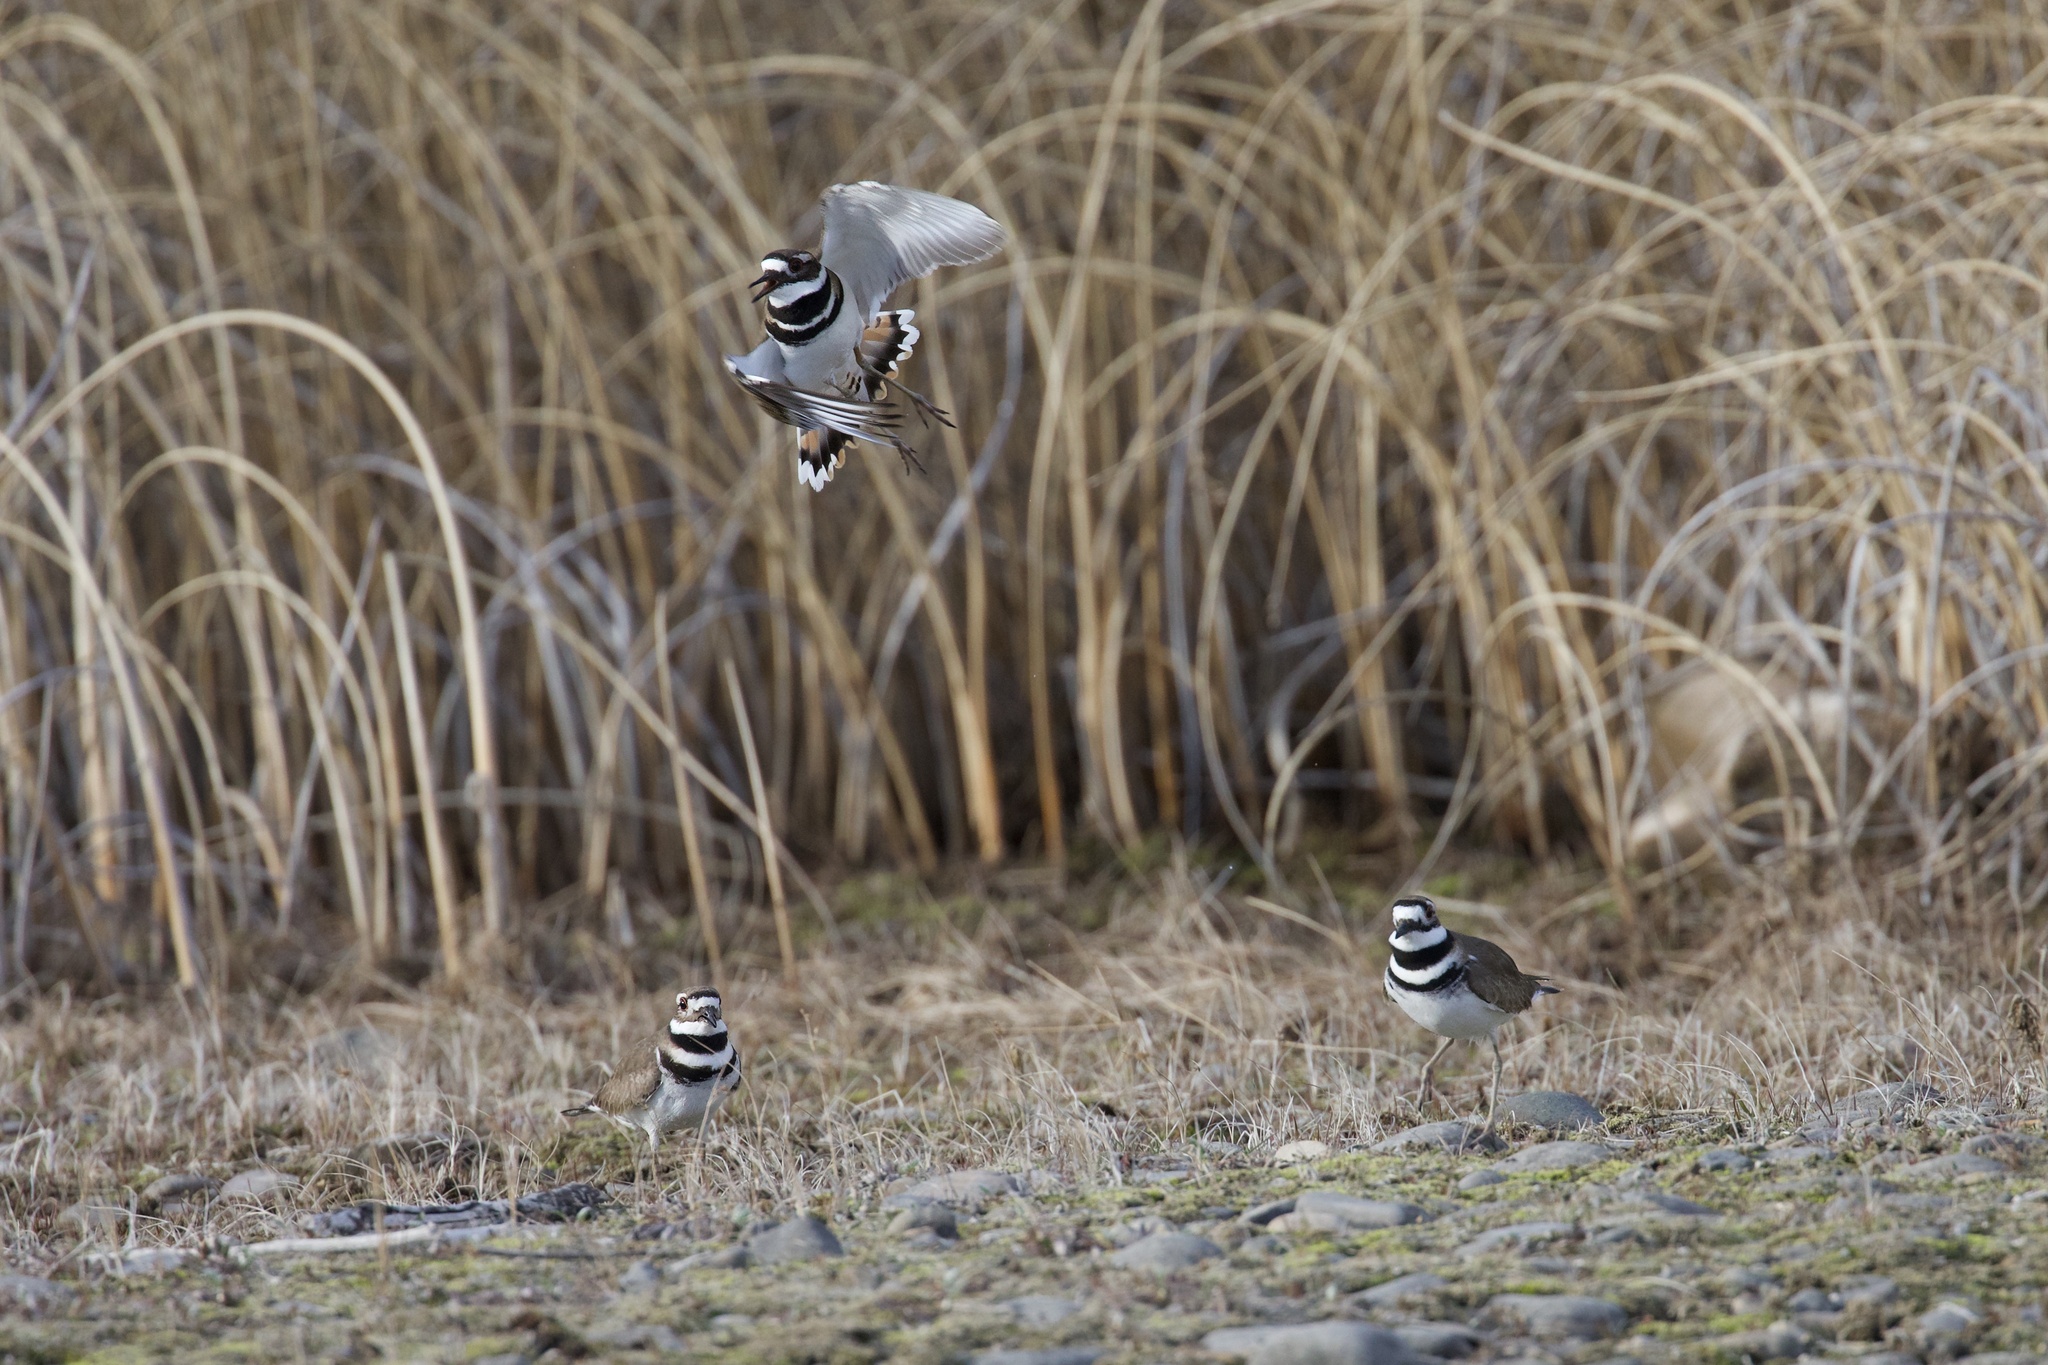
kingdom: Animalia
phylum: Chordata
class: Aves
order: Charadriiformes
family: Charadriidae
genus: Charadrius
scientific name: Charadrius vociferus
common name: Killdeer
